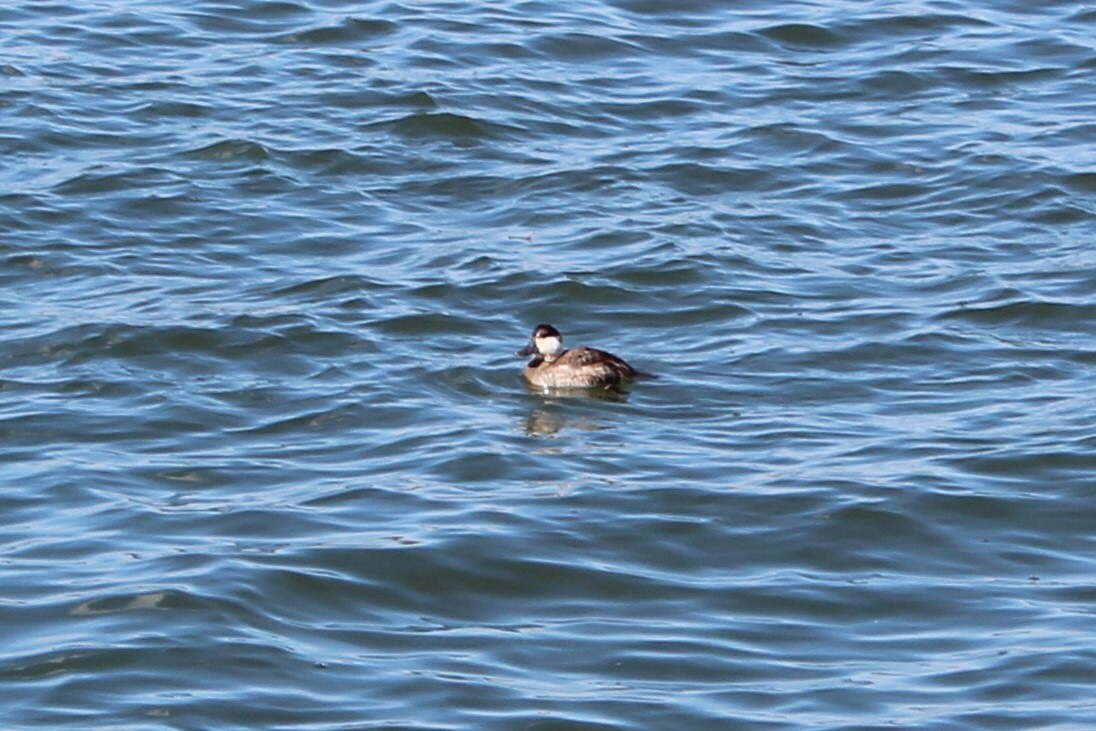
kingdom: Animalia
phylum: Chordata
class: Aves
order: Anseriformes
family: Anatidae
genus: Oxyura
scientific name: Oxyura jamaicensis
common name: Ruddy duck
